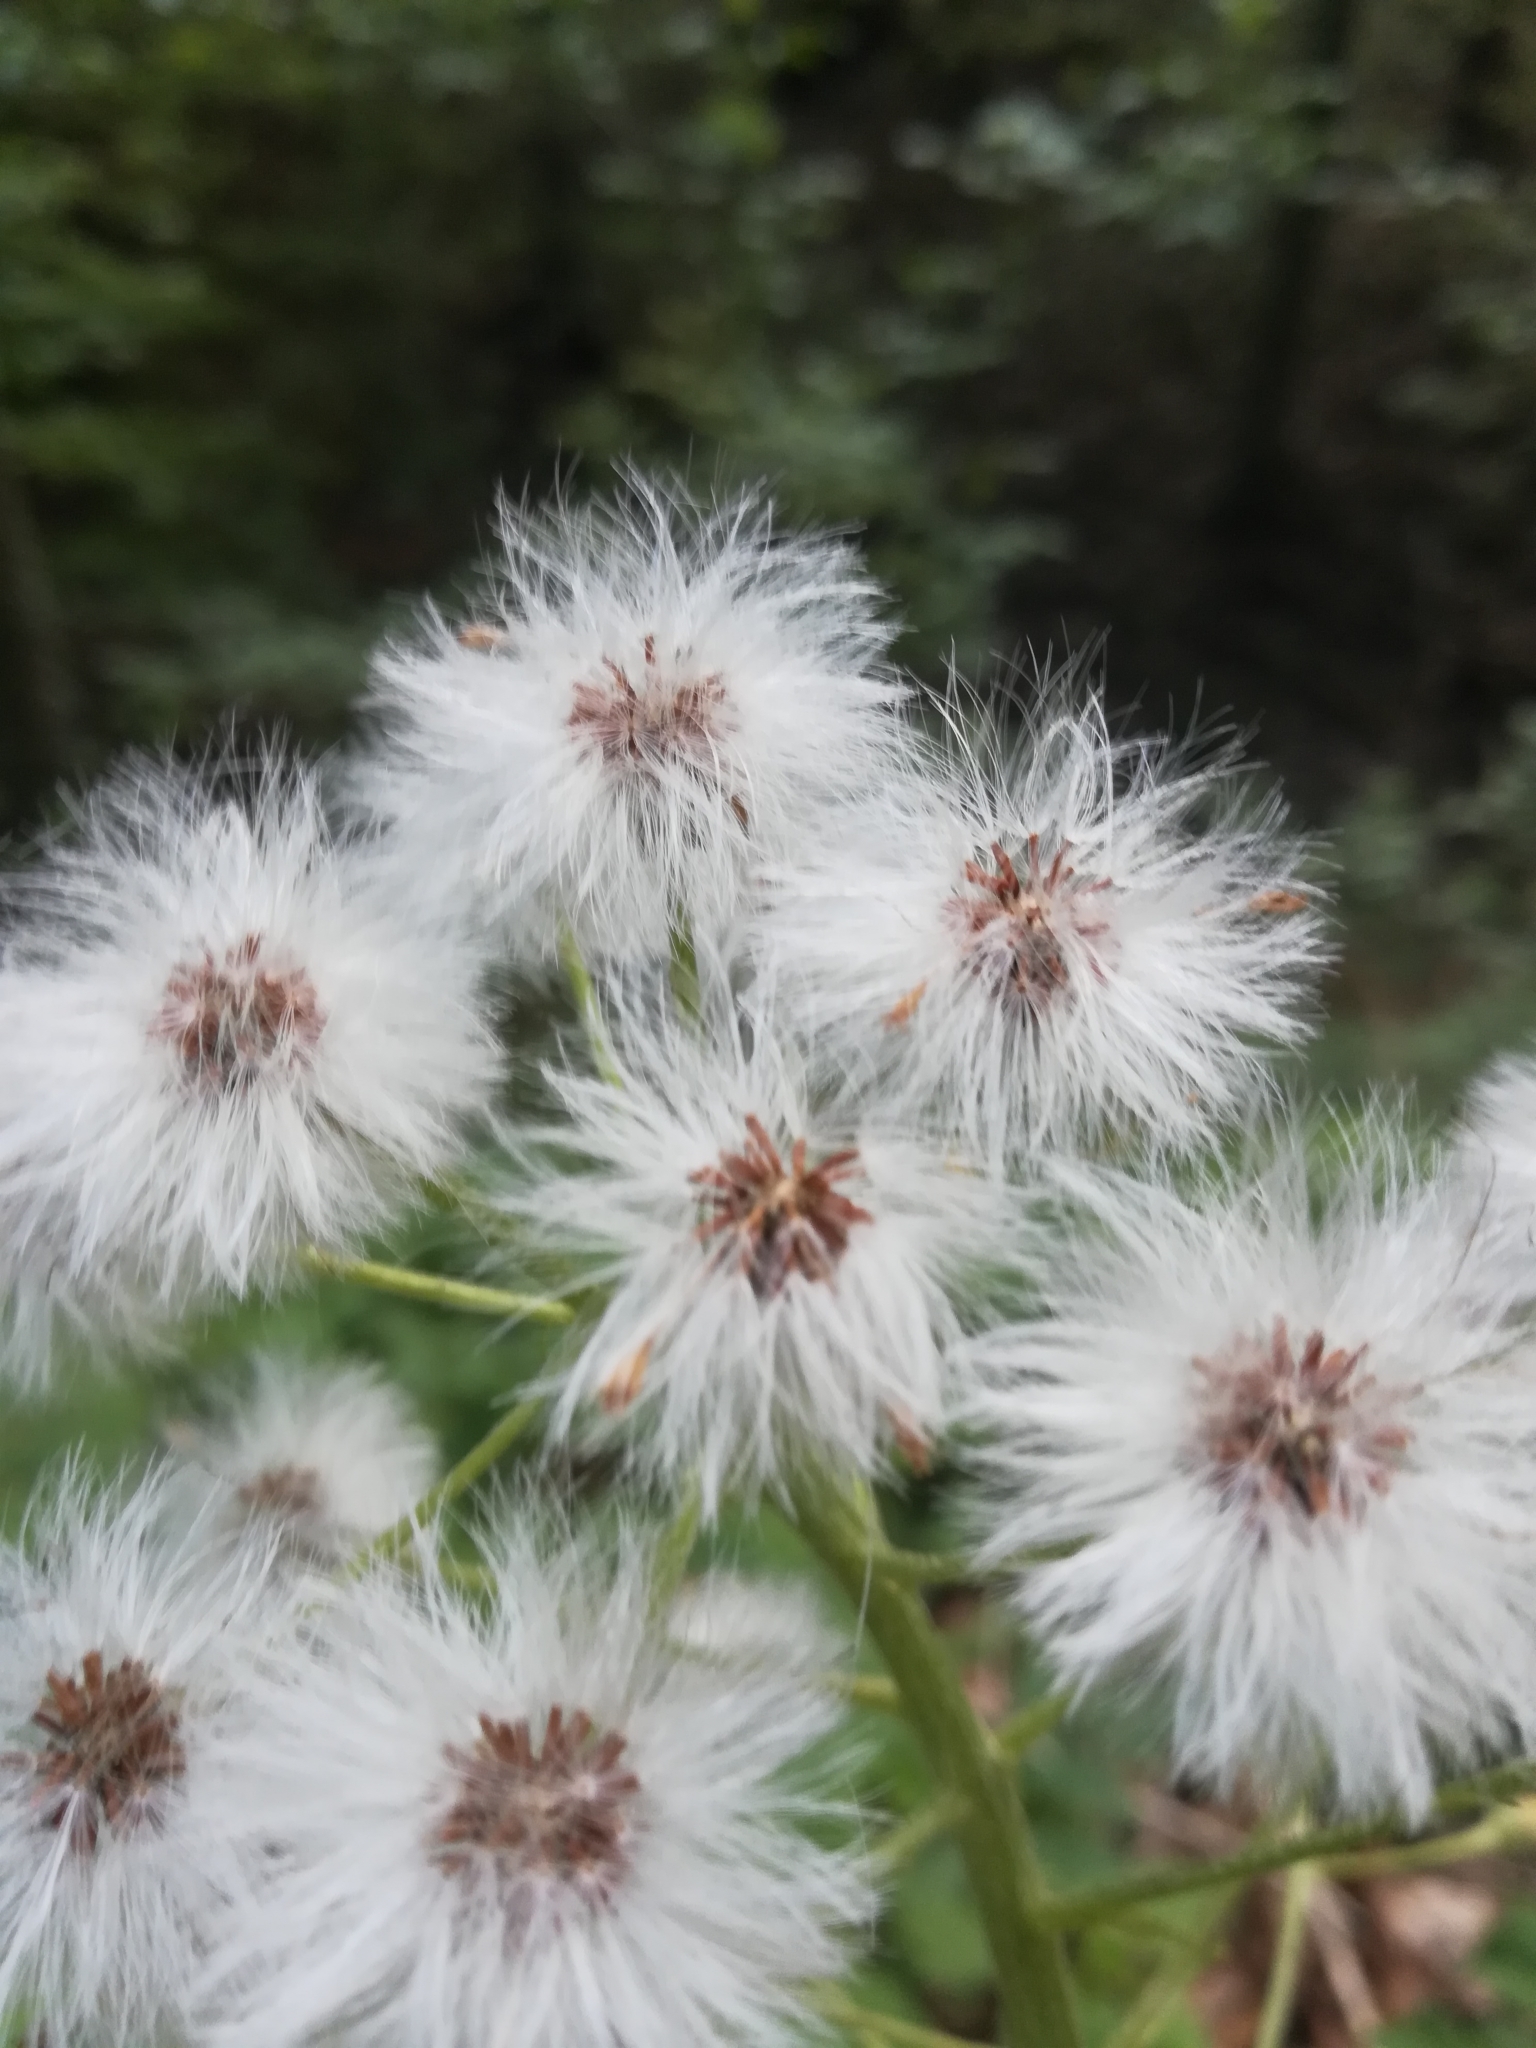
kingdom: Plantae
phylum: Tracheophyta
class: Magnoliopsida
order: Asterales
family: Asteraceae
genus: Petasites
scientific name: Petasites albus
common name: White butterbur
